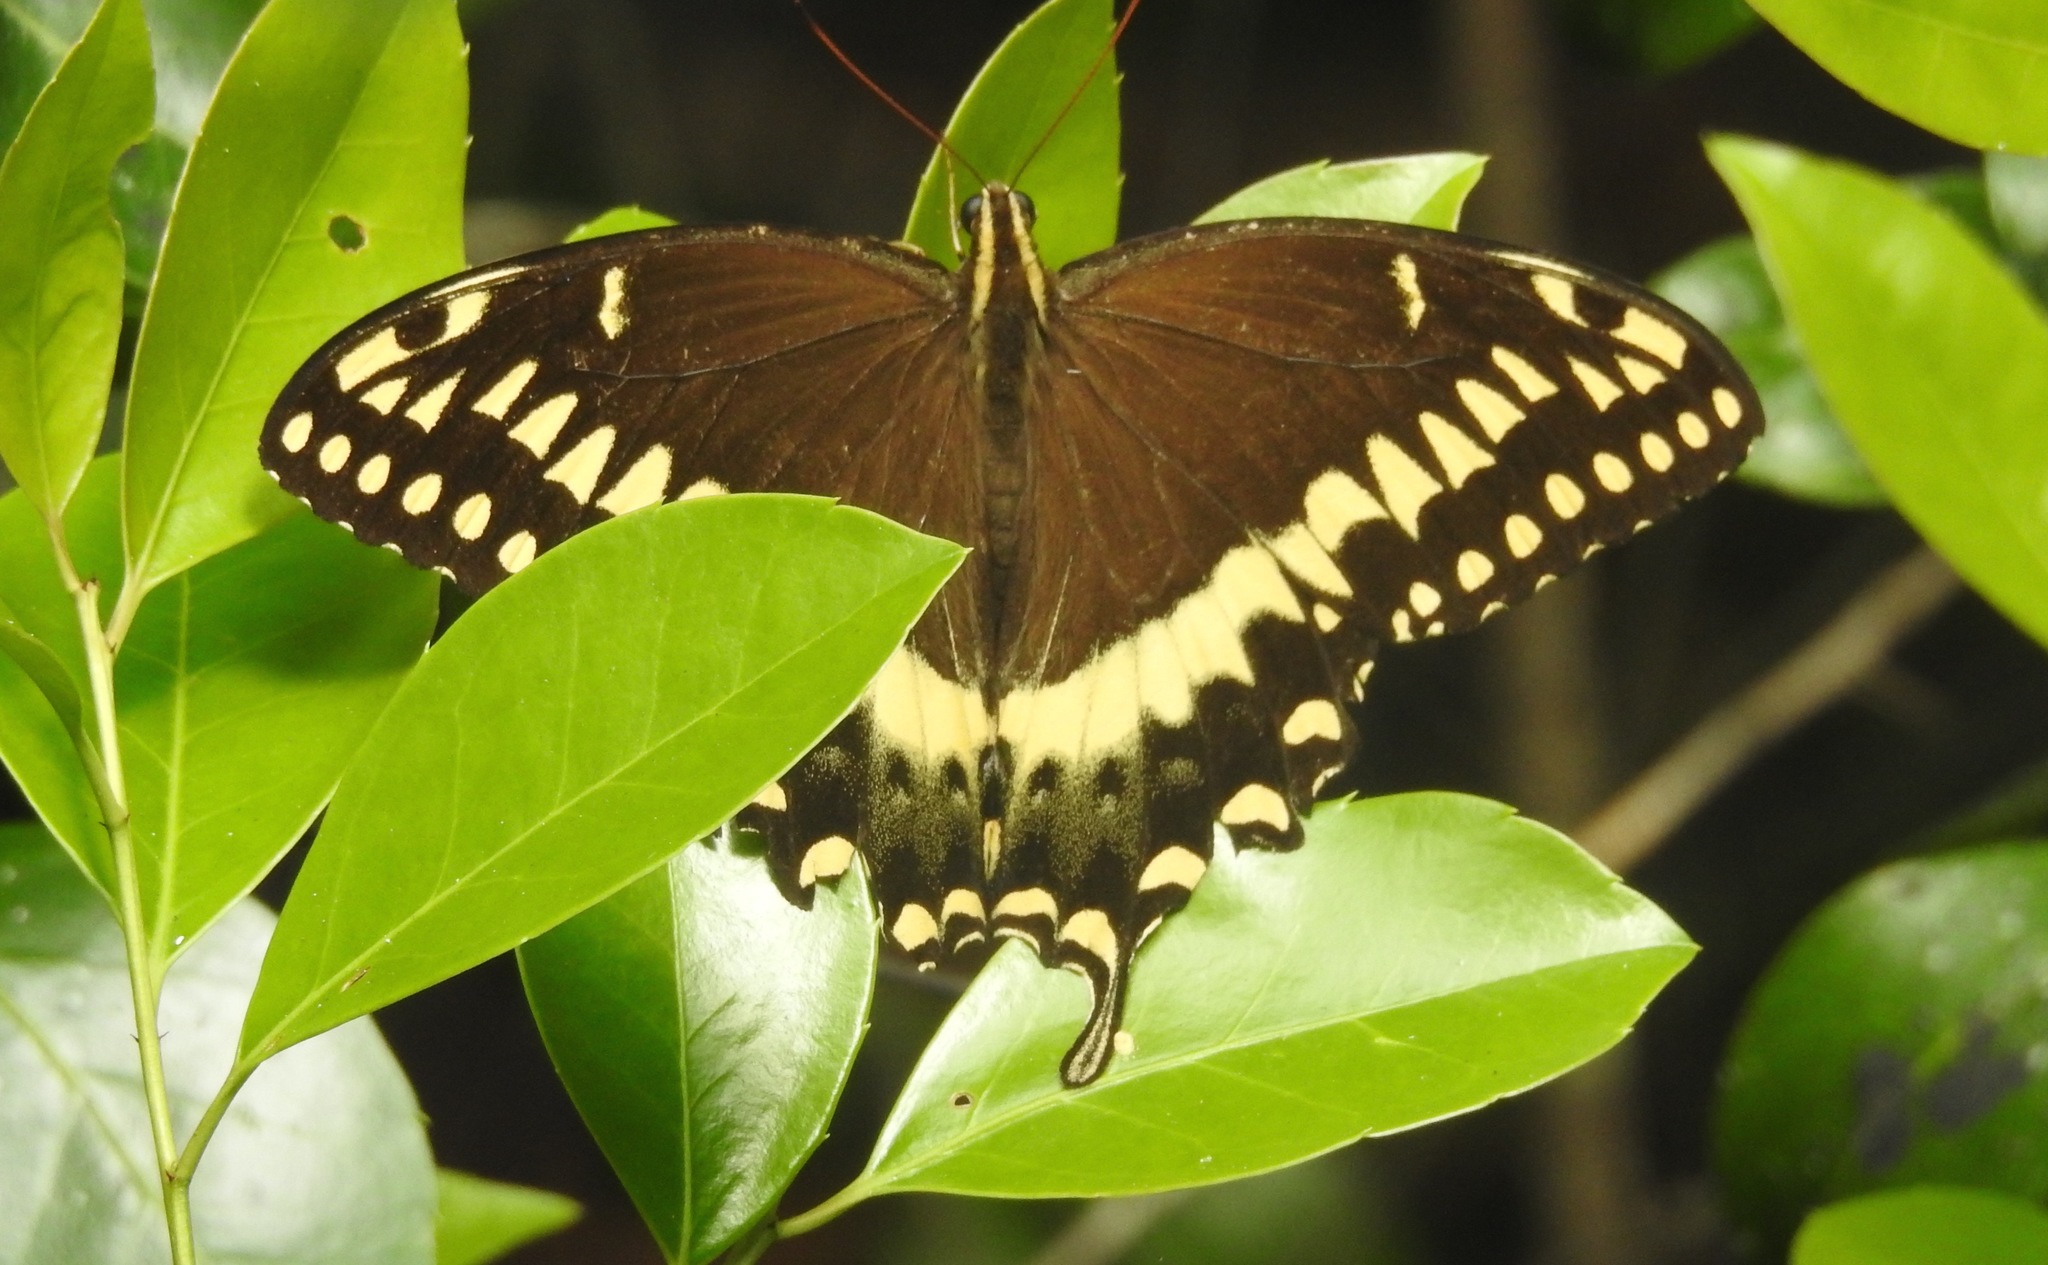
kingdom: Animalia
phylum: Arthropoda
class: Insecta
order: Lepidoptera
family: Papilionidae
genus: Papilio
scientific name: Papilio palamedes
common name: Palamedes swallowtail
